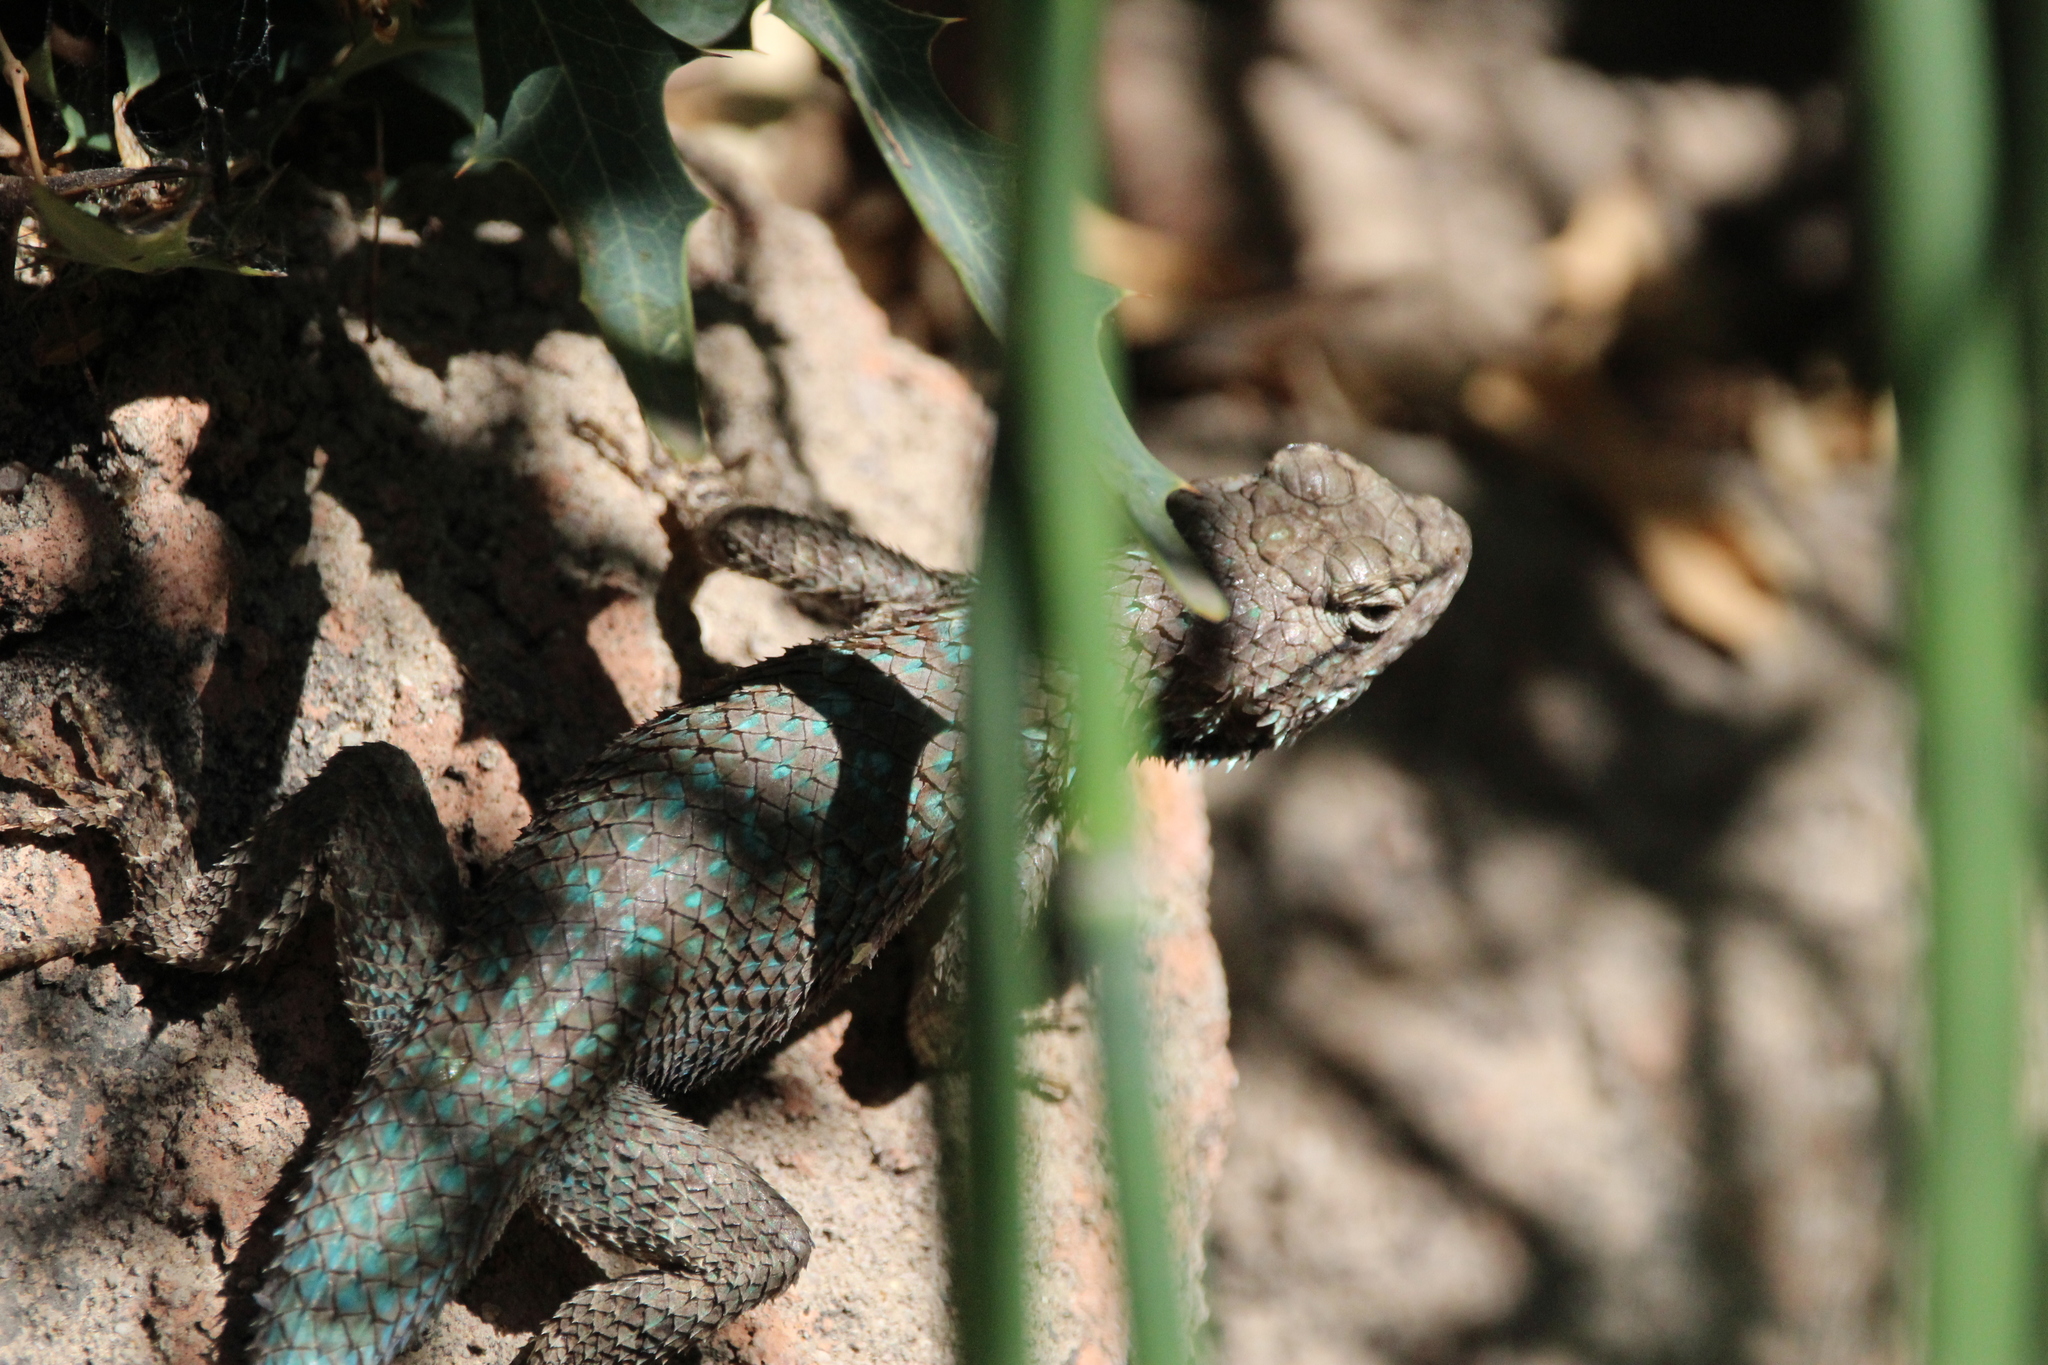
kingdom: Animalia
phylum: Chordata
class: Squamata
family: Phrynosomatidae
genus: Sceloporus
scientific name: Sceloporus clarkii
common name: Clark's spiny lizard
